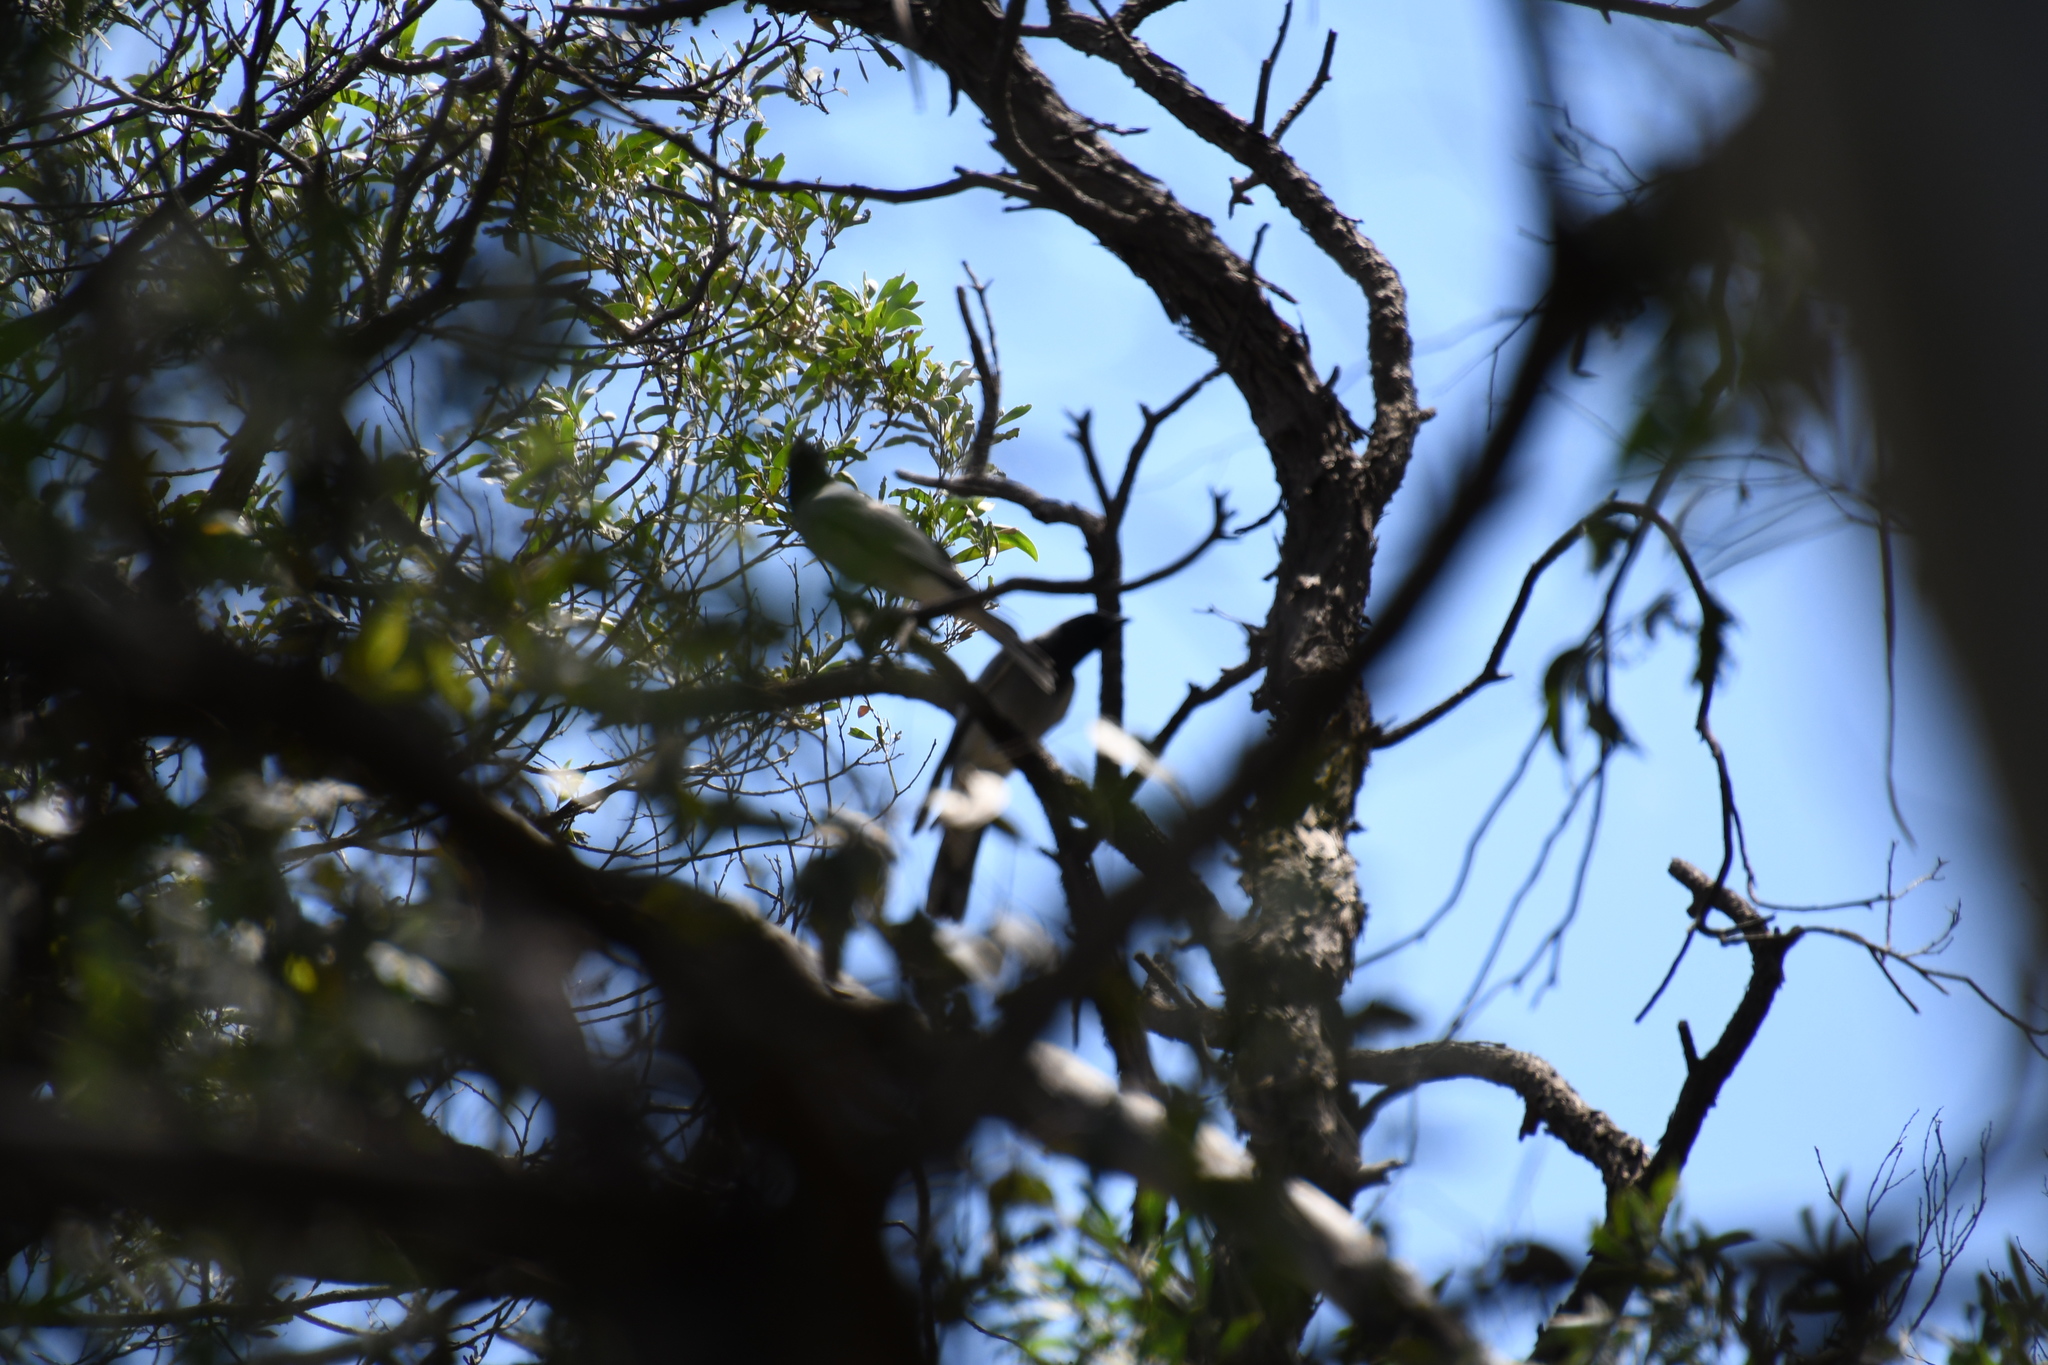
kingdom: Animalia
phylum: Chordata
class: Aves
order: Passeriformes
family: Campephagidae
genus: Coracina
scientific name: Coracina novaehollandiae
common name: Black-faced cuckooshrike
